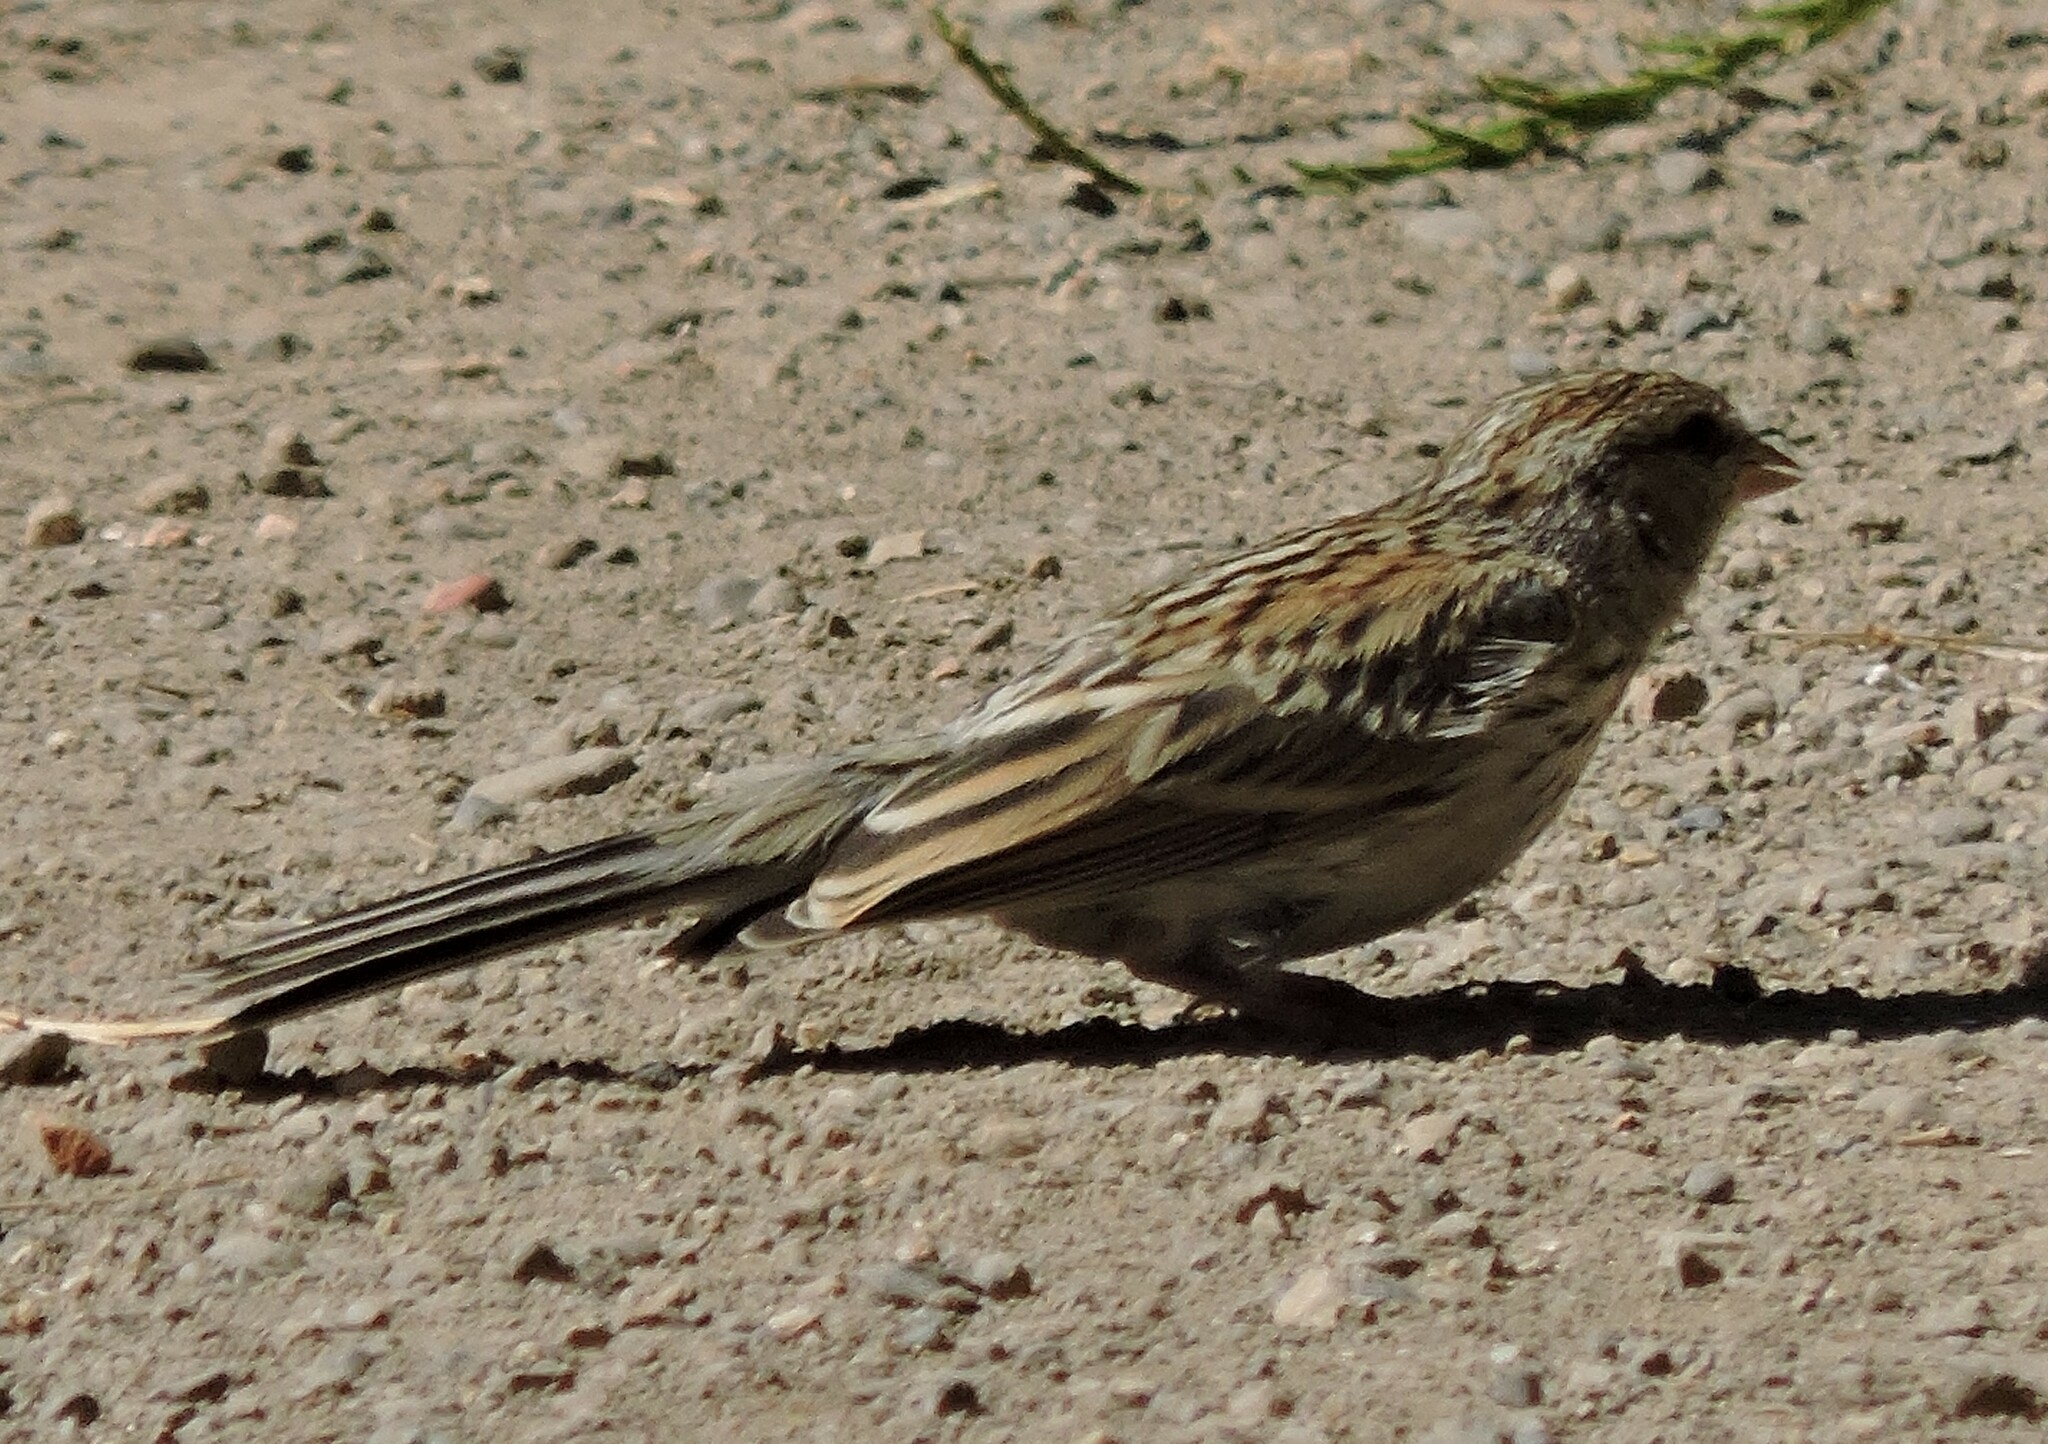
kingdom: Animalia
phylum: Chordata
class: Aves
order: Passeriformes
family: Passerellidae
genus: Spizella
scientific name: Spizella passerina
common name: Chipping sparrow
